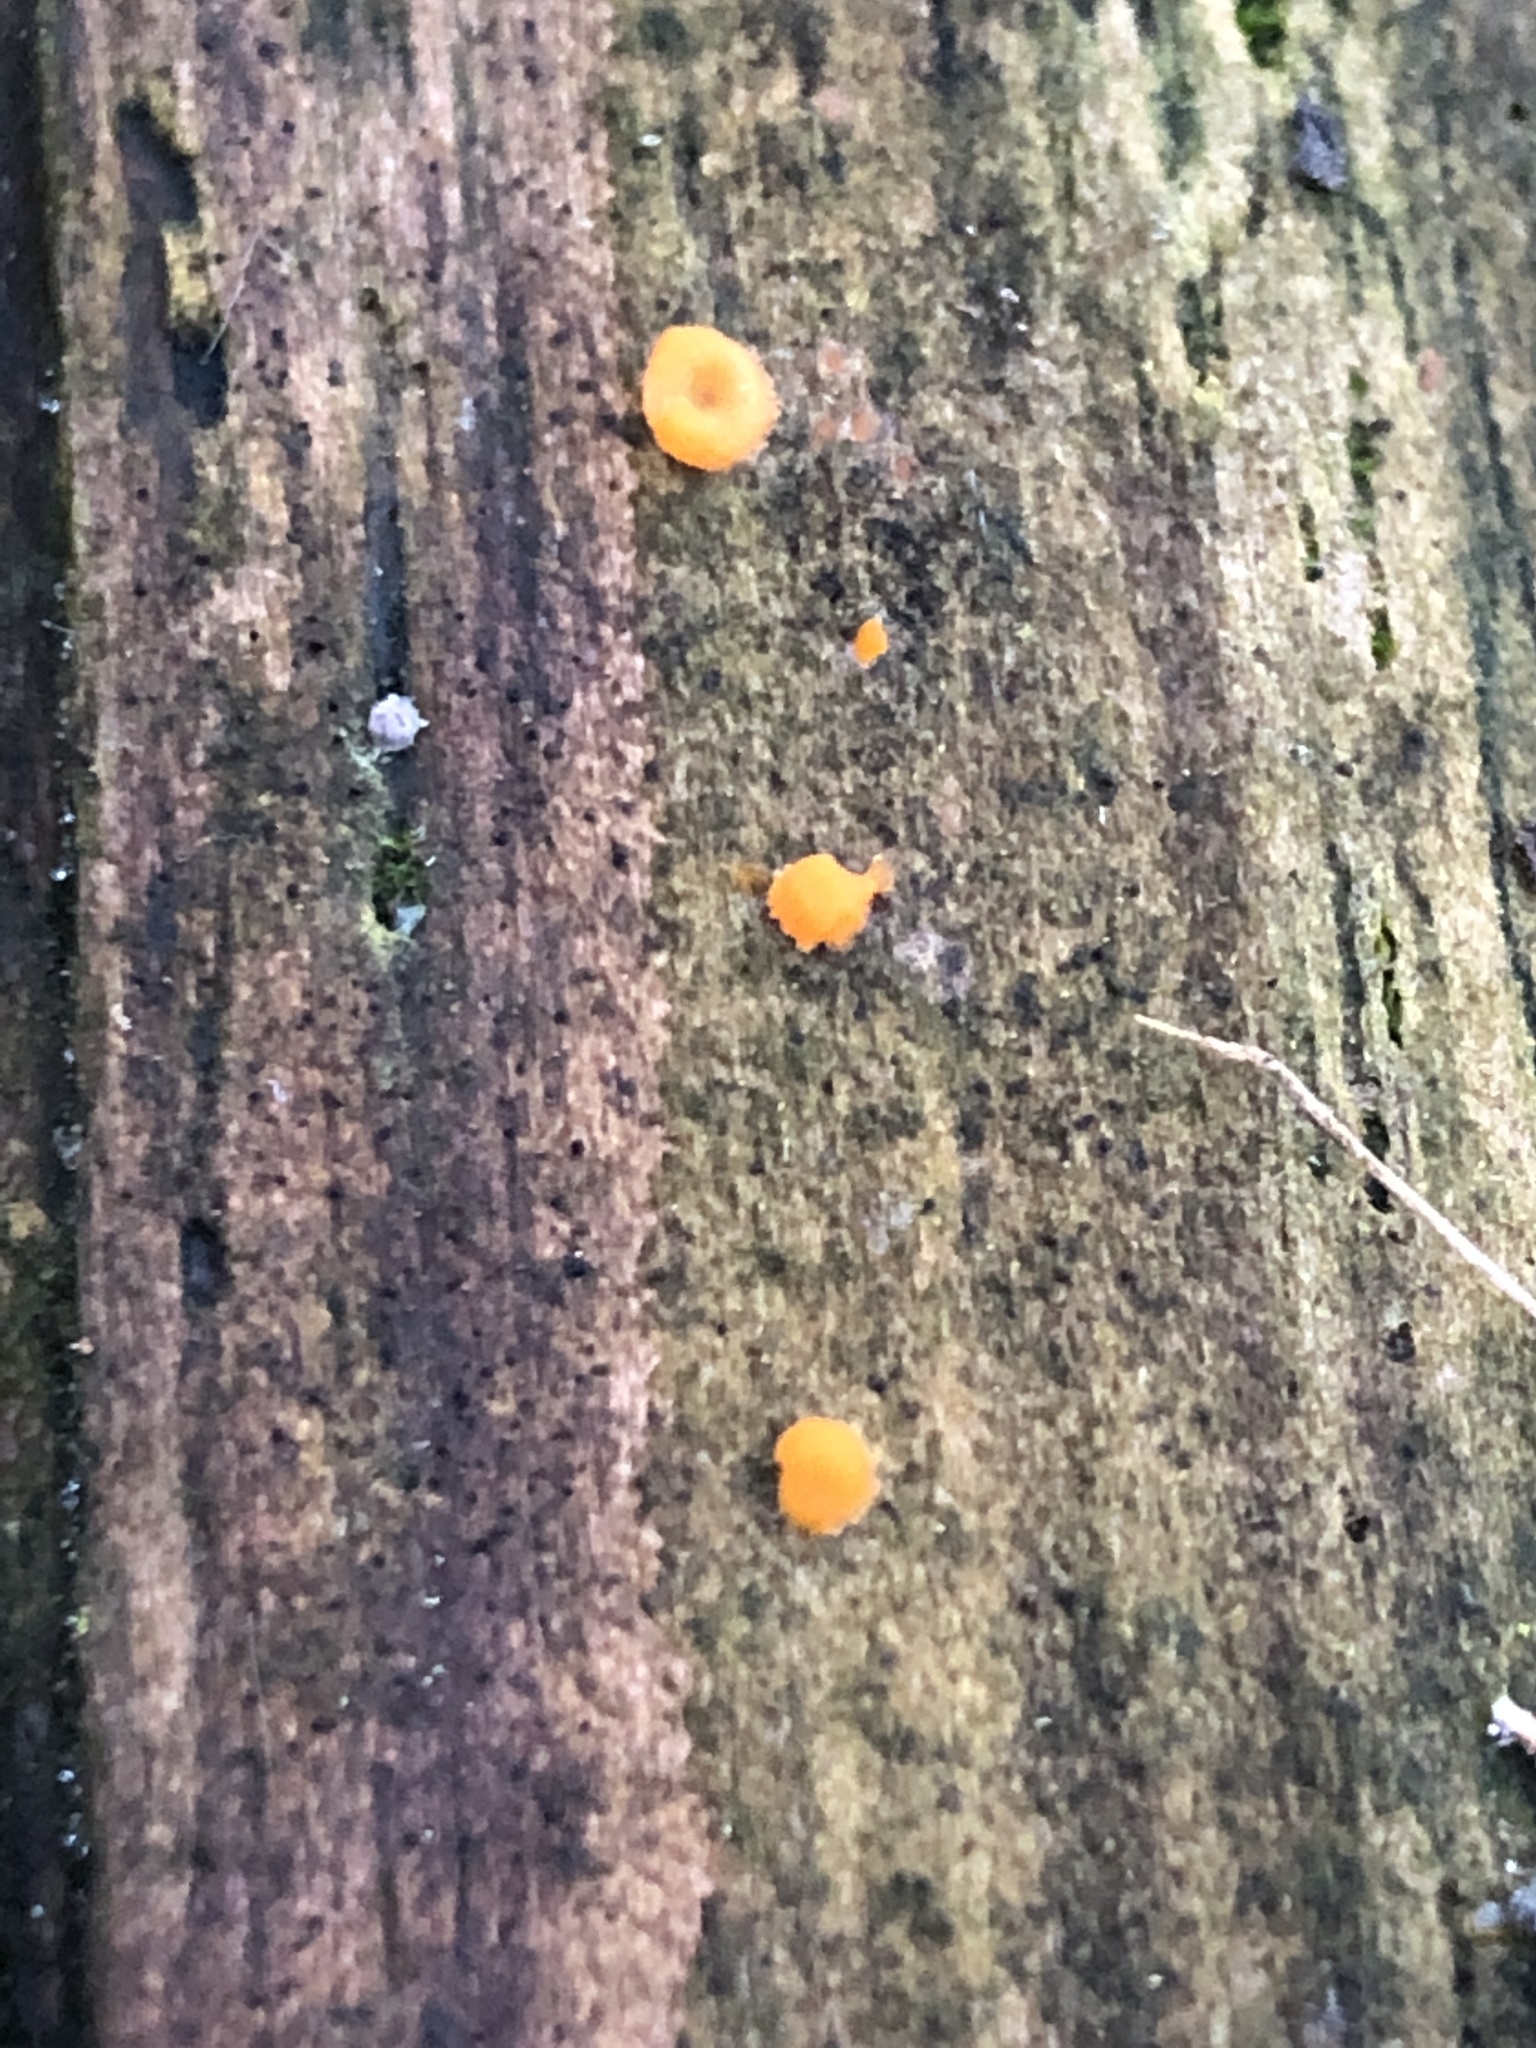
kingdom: Fungi
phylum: Basidiomycota
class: Dacrymycetes
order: Dacrymycetales
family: Dacrymycetaceae
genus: Dacrymyces
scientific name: Dacrymyces stillatus
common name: Common jelly spot
